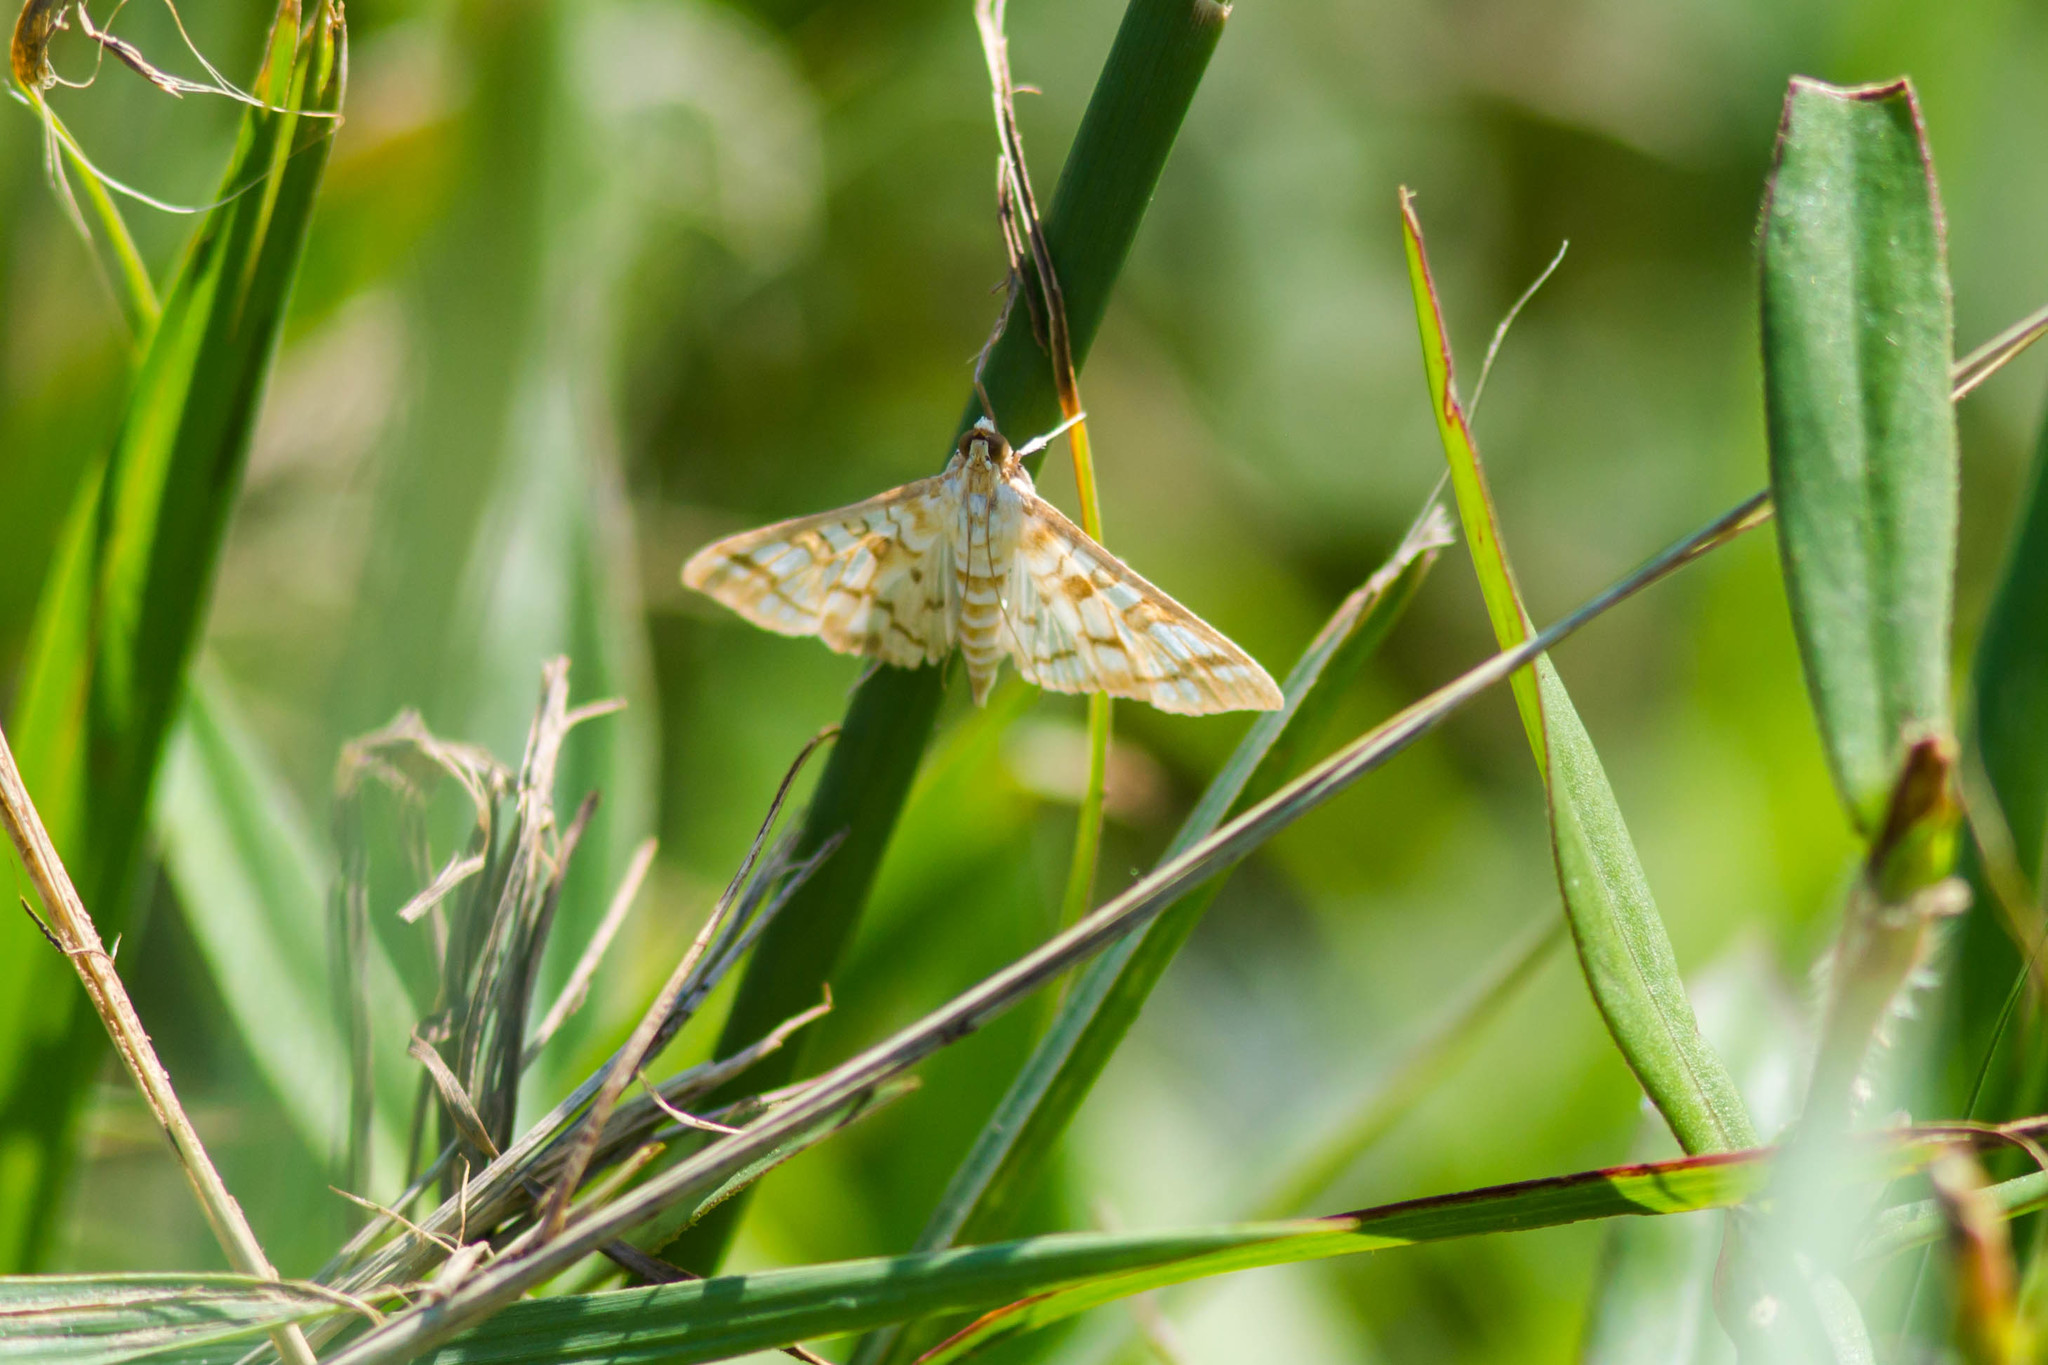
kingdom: Animalia
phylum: Arthropoda
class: Insecta
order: Lepidoptera
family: Crambidae
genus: Epipagis
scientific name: Epipagis fenestralis
